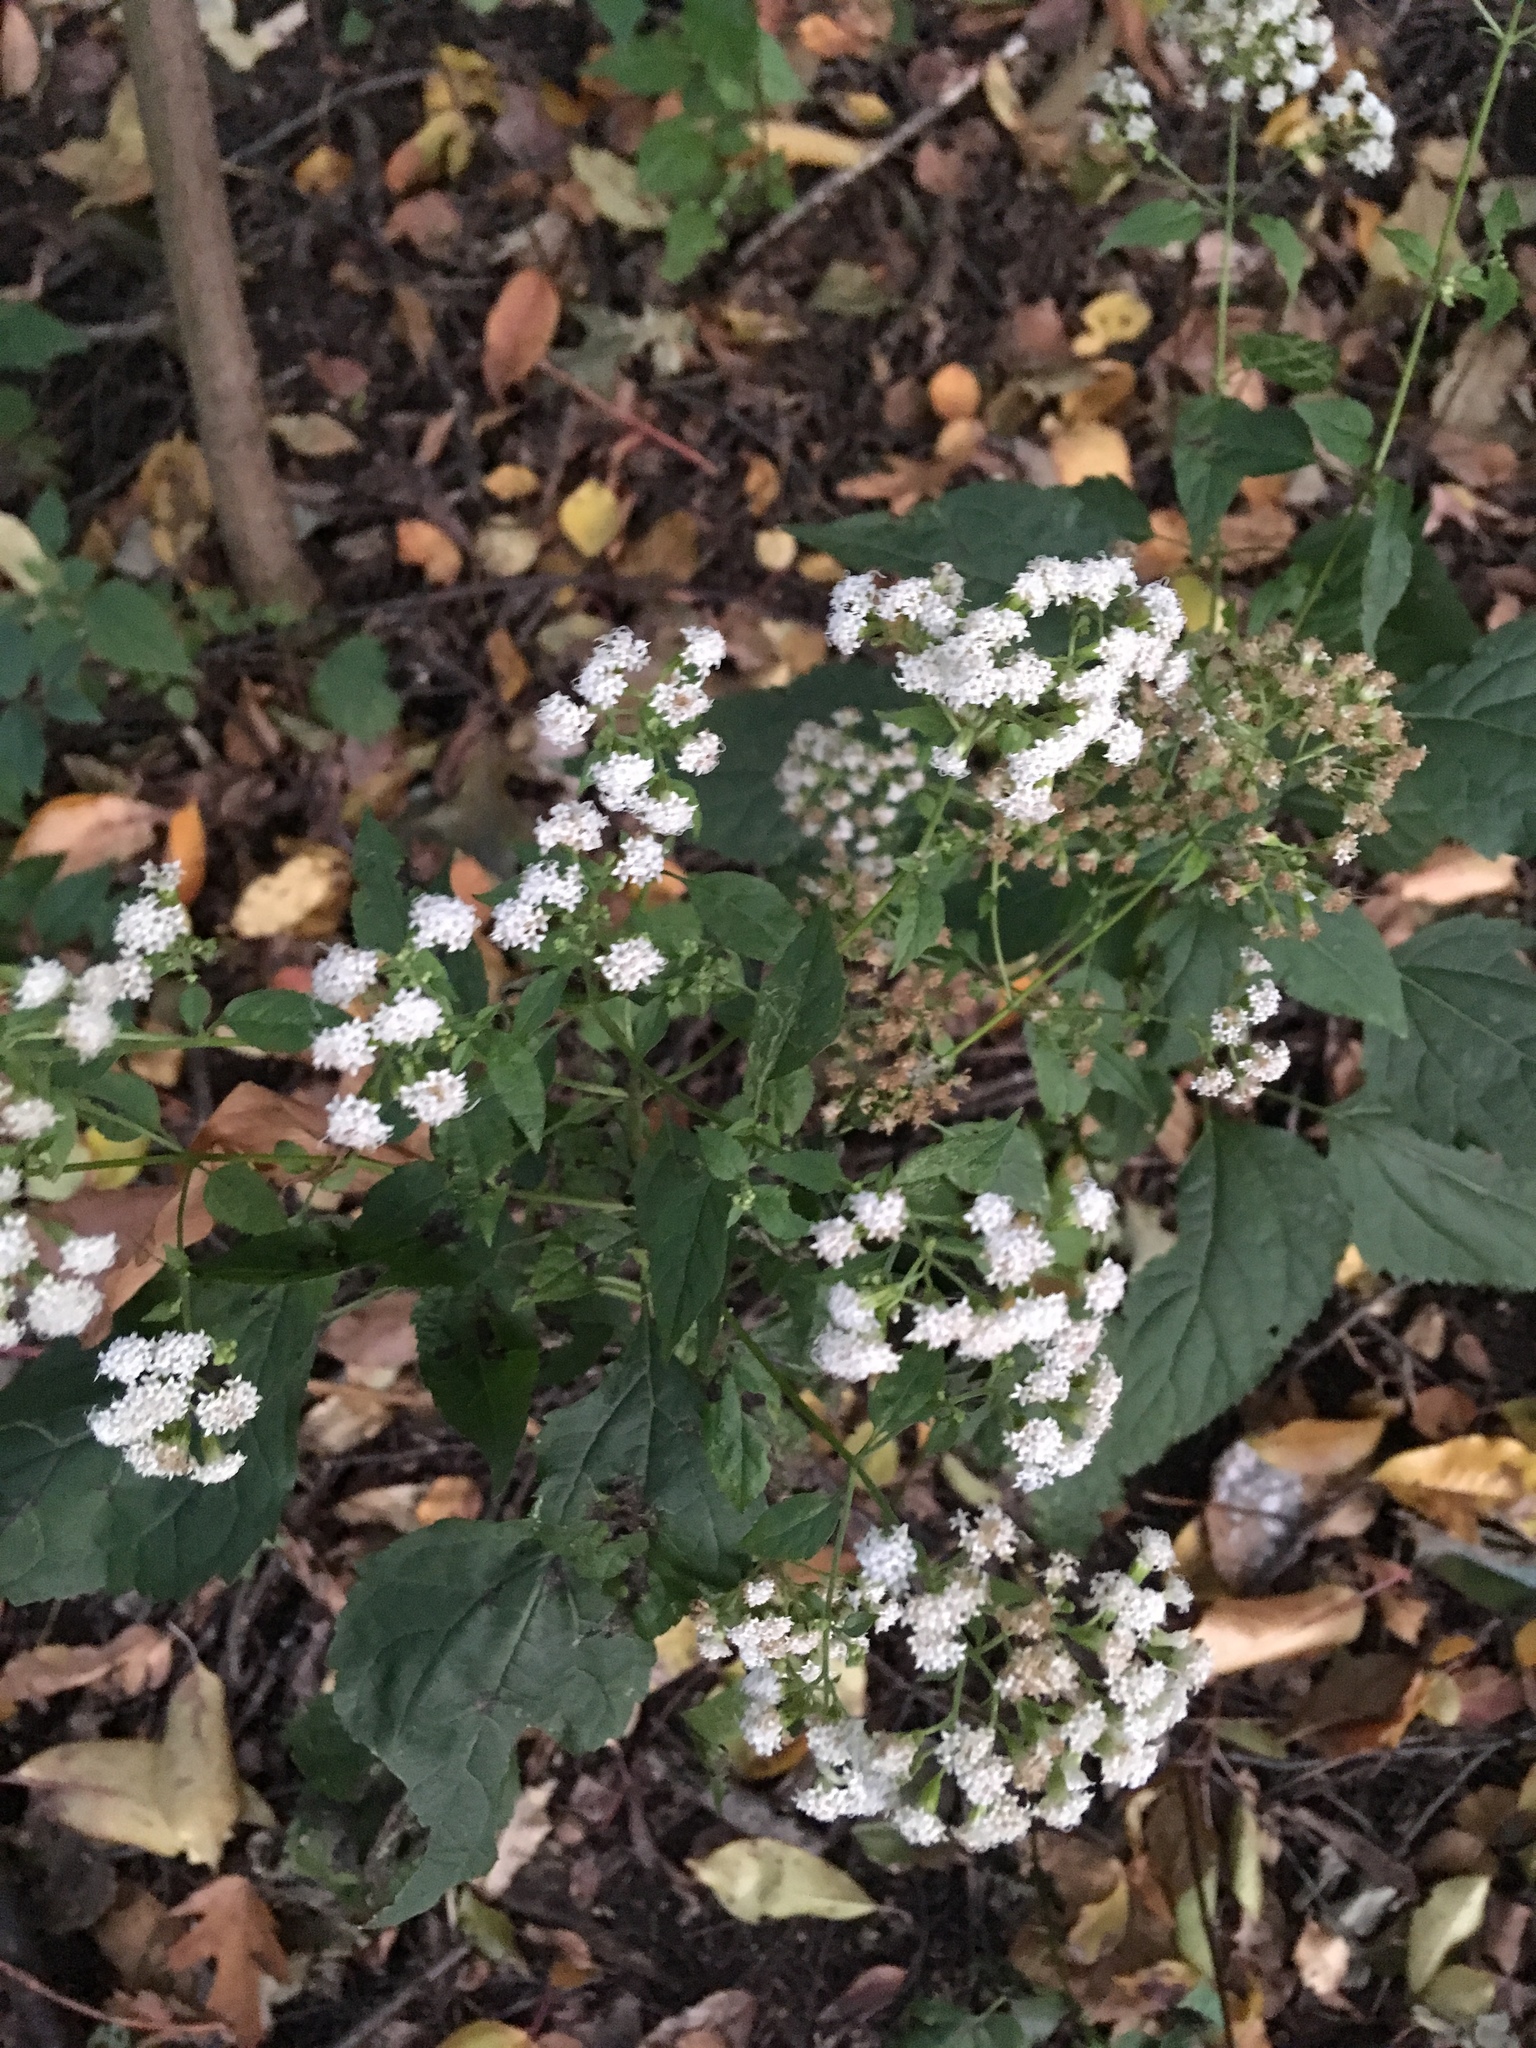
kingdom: Plantae
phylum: Tracheophyta
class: Magnoliopsida
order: Asterales
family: Asteraceae
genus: Ageratina
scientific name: Ageratina altissima
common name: White snakeroot
